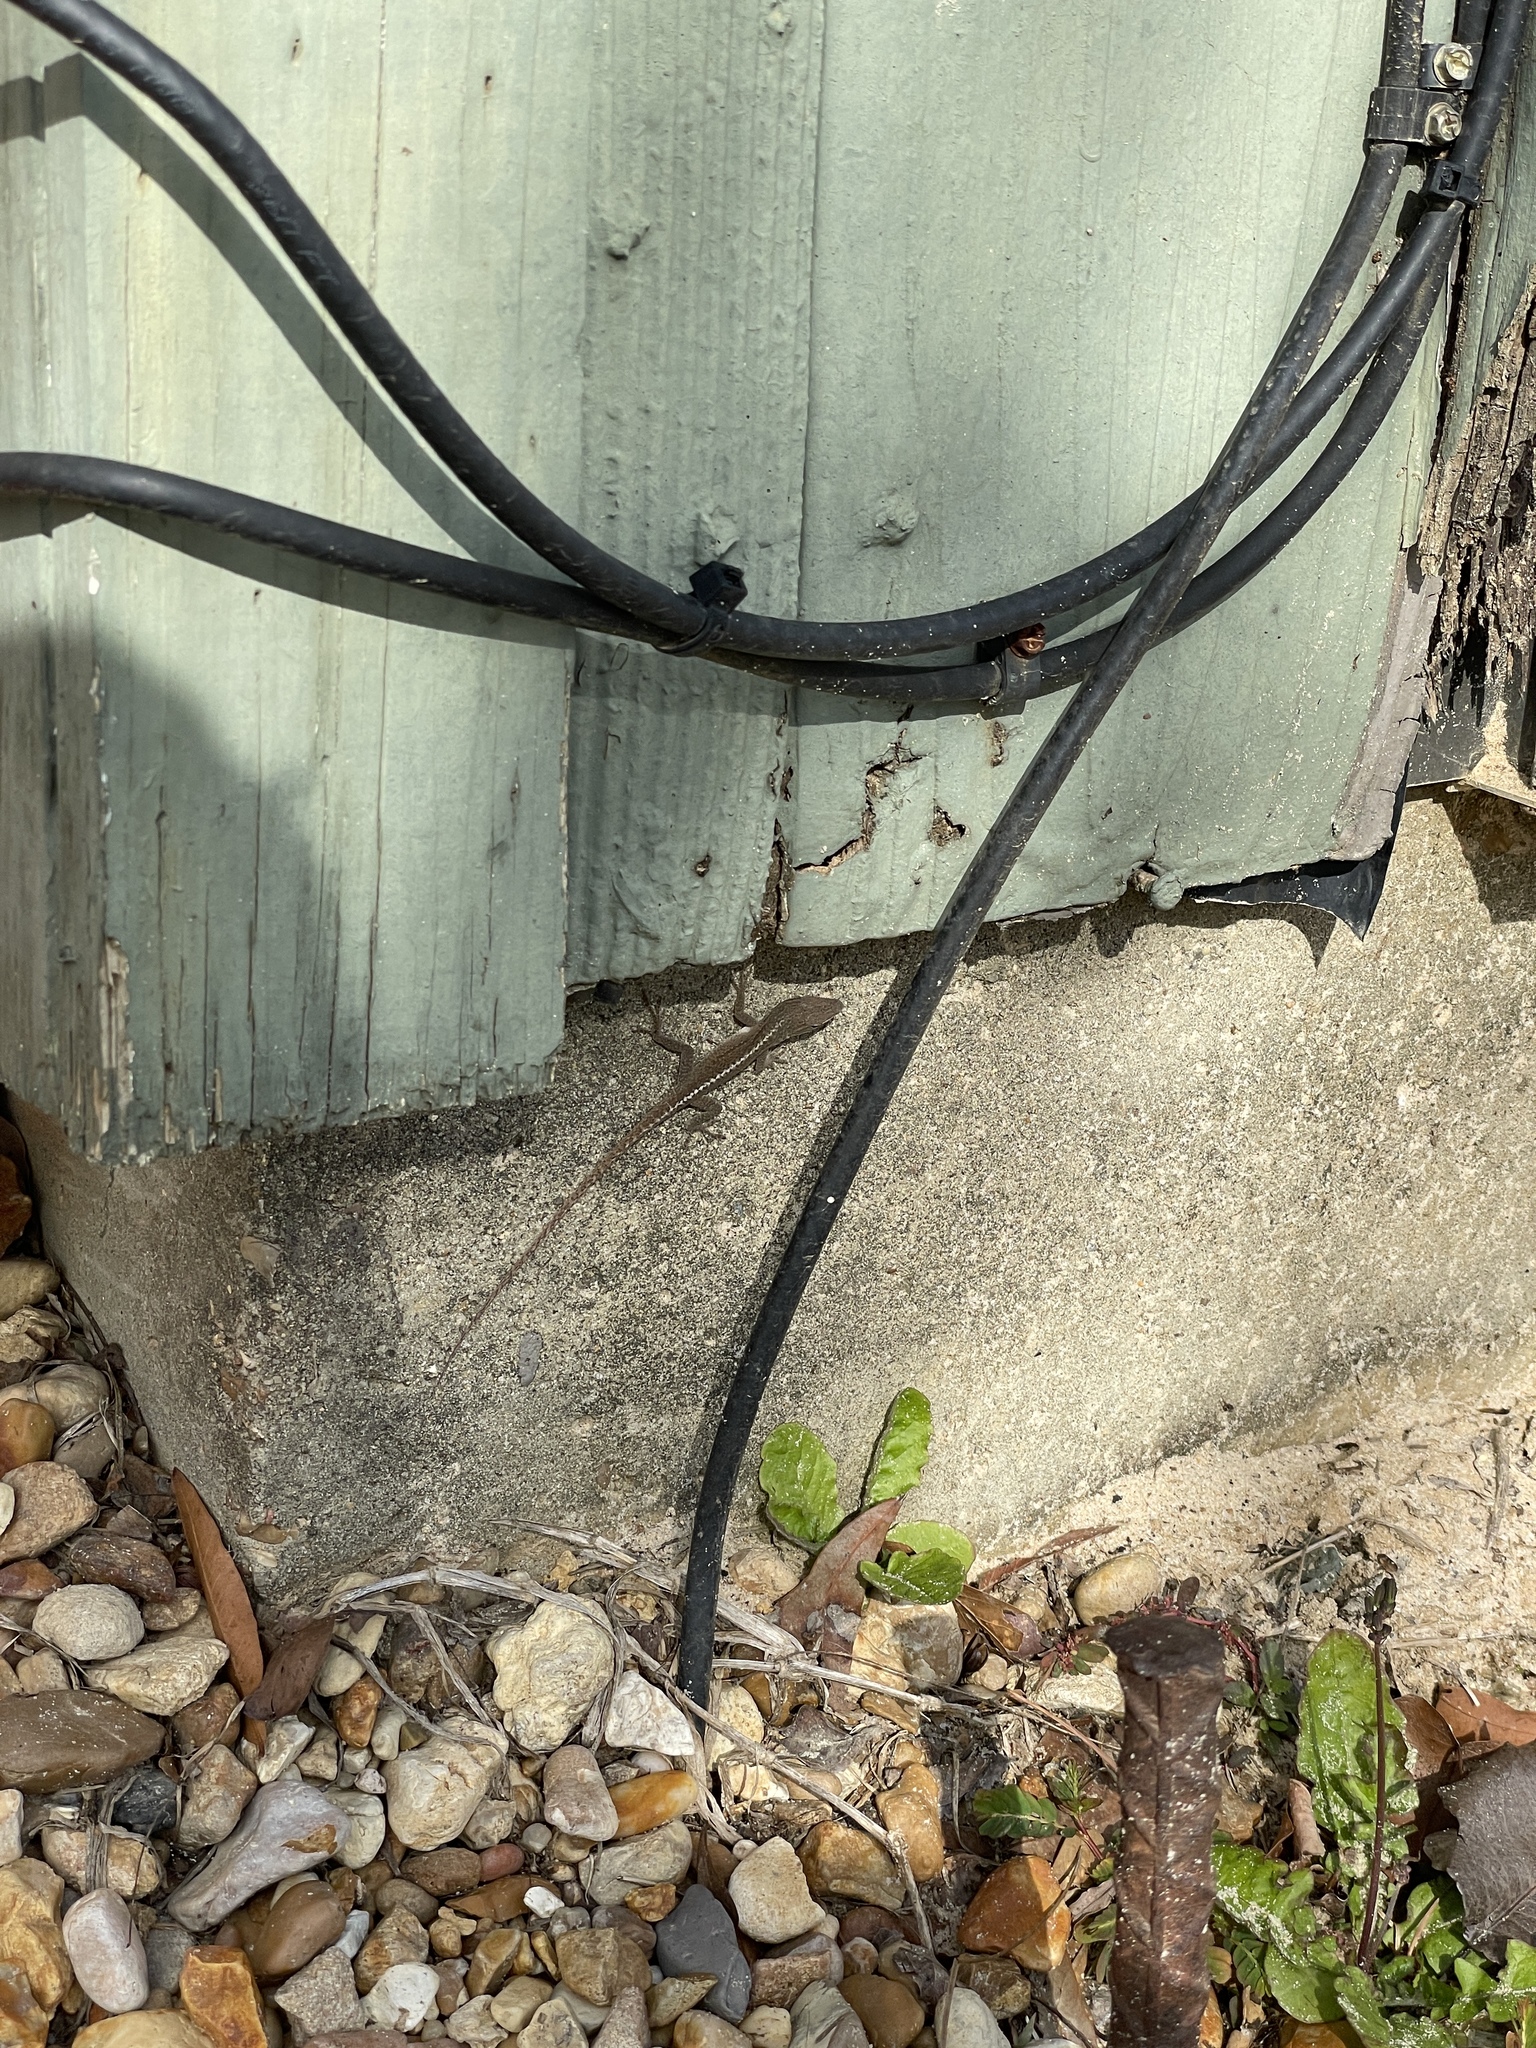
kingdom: Animalia
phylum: Chordata
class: Squamata
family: Dactyloidae
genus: Anolis
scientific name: Anolis carolinensis
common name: Green anole
